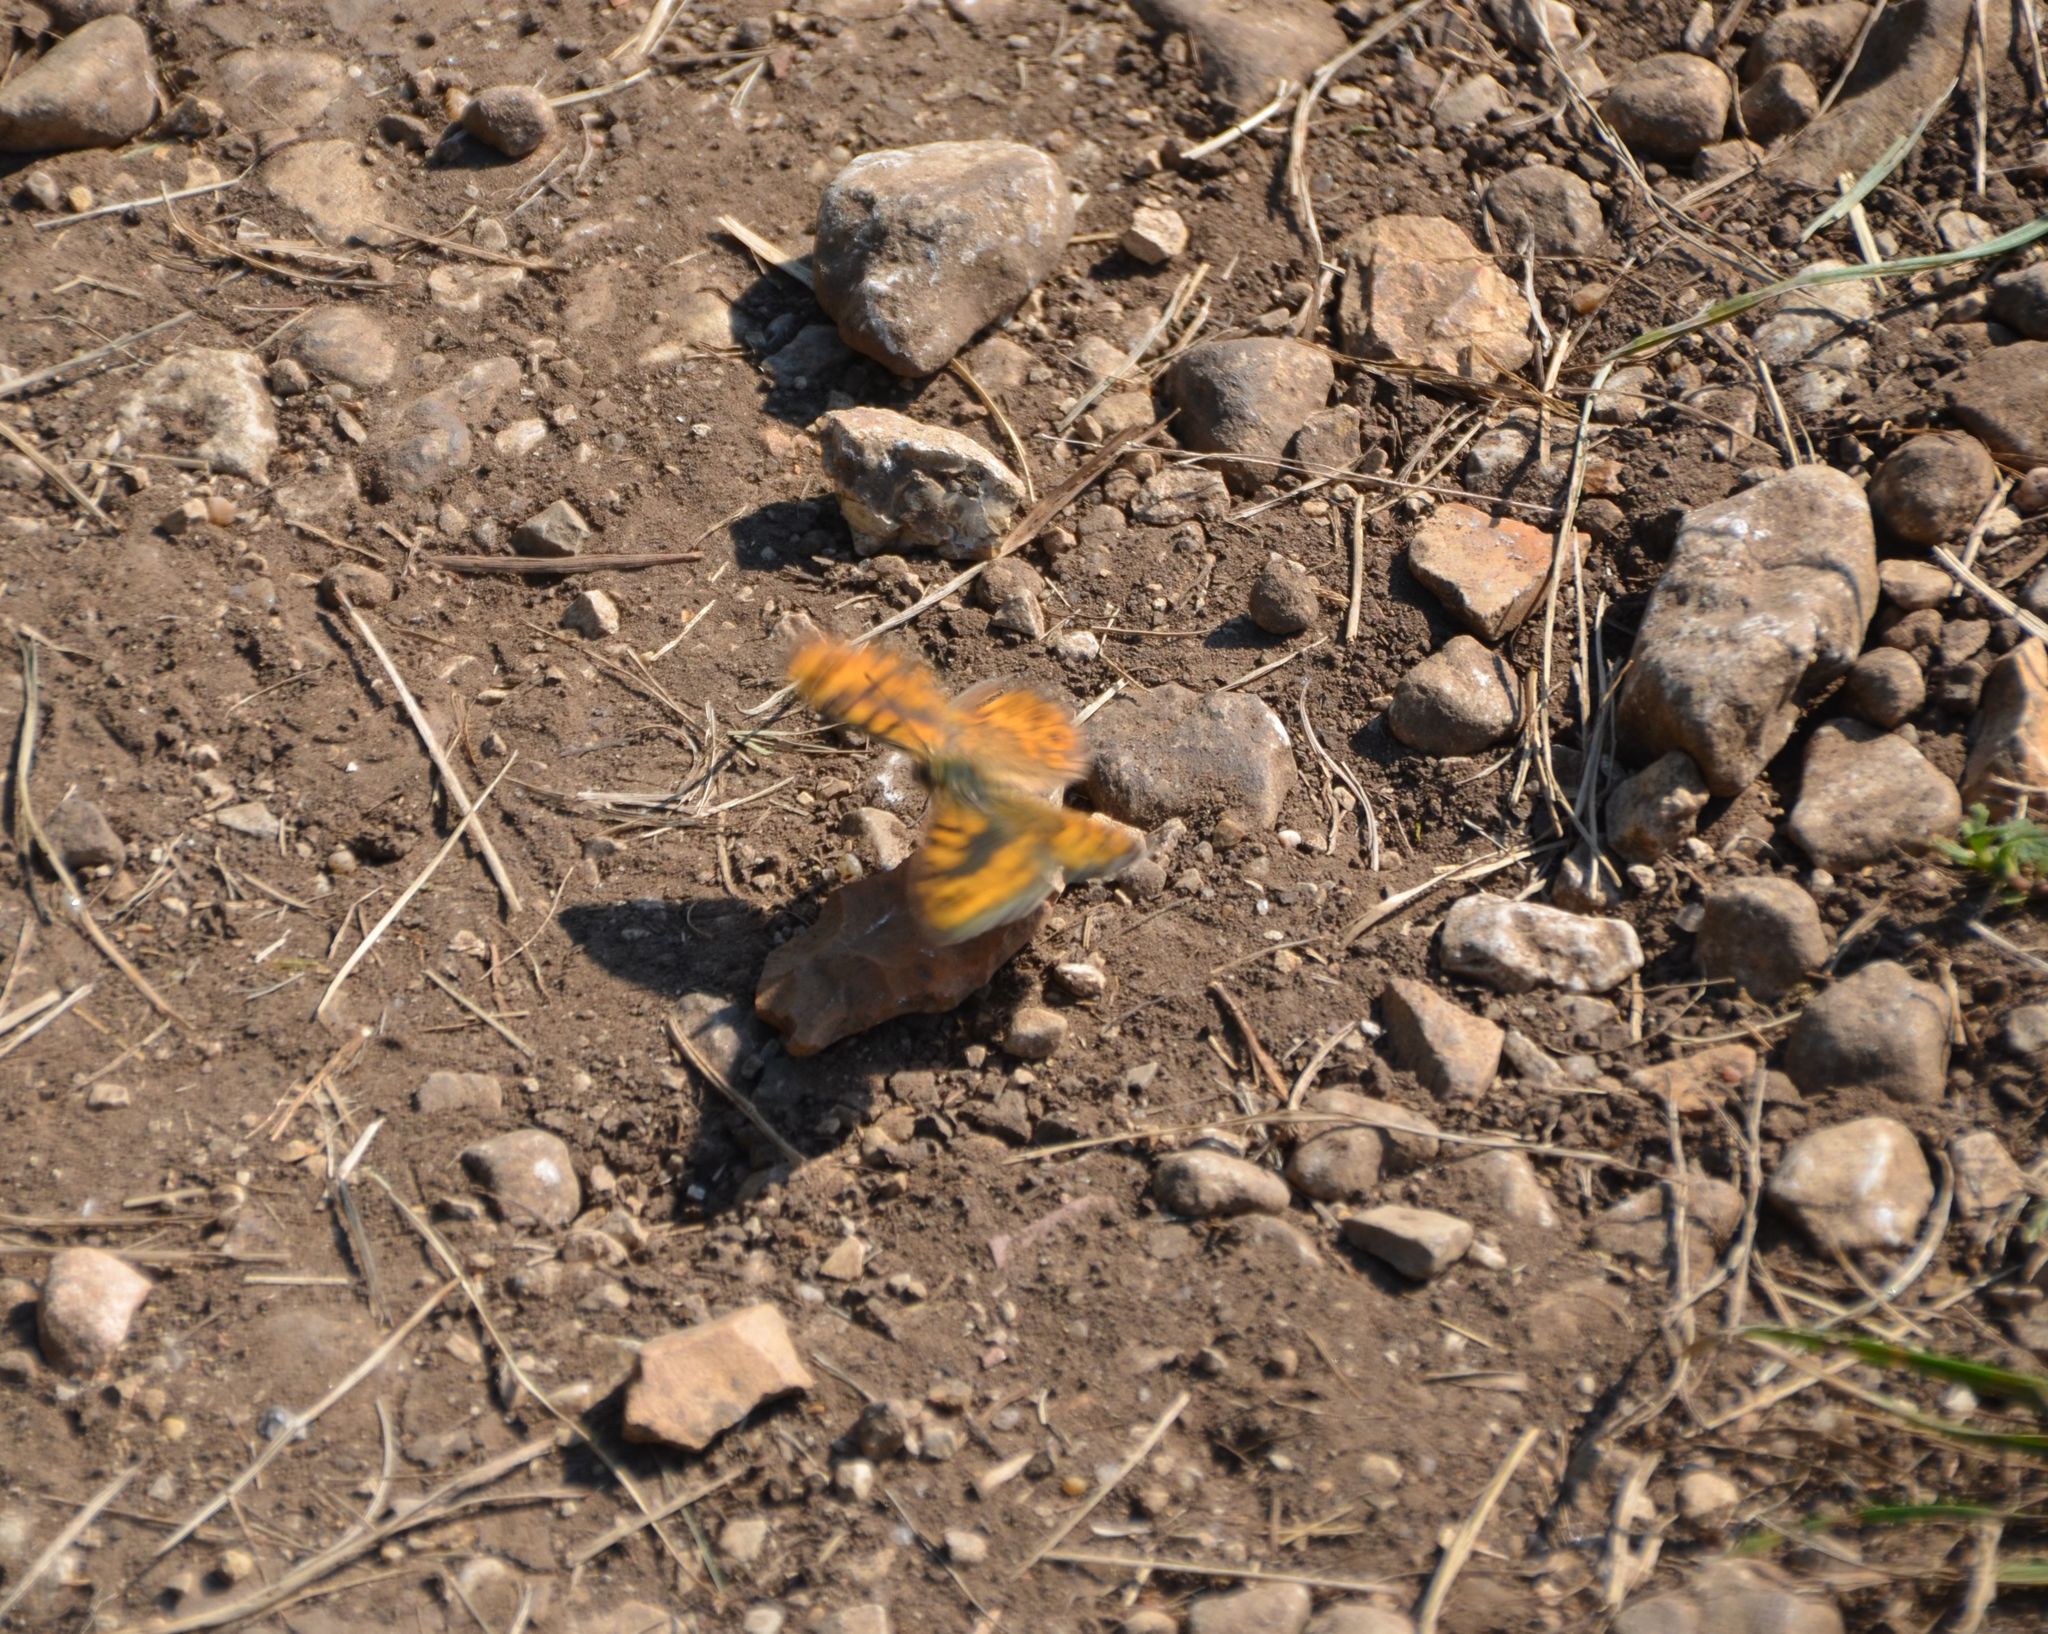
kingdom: Animalia
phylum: Arthropoda
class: Insecta
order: Lepidoptera
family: Nymphalidae
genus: Pararge
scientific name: Pararge Lasiommata megera
